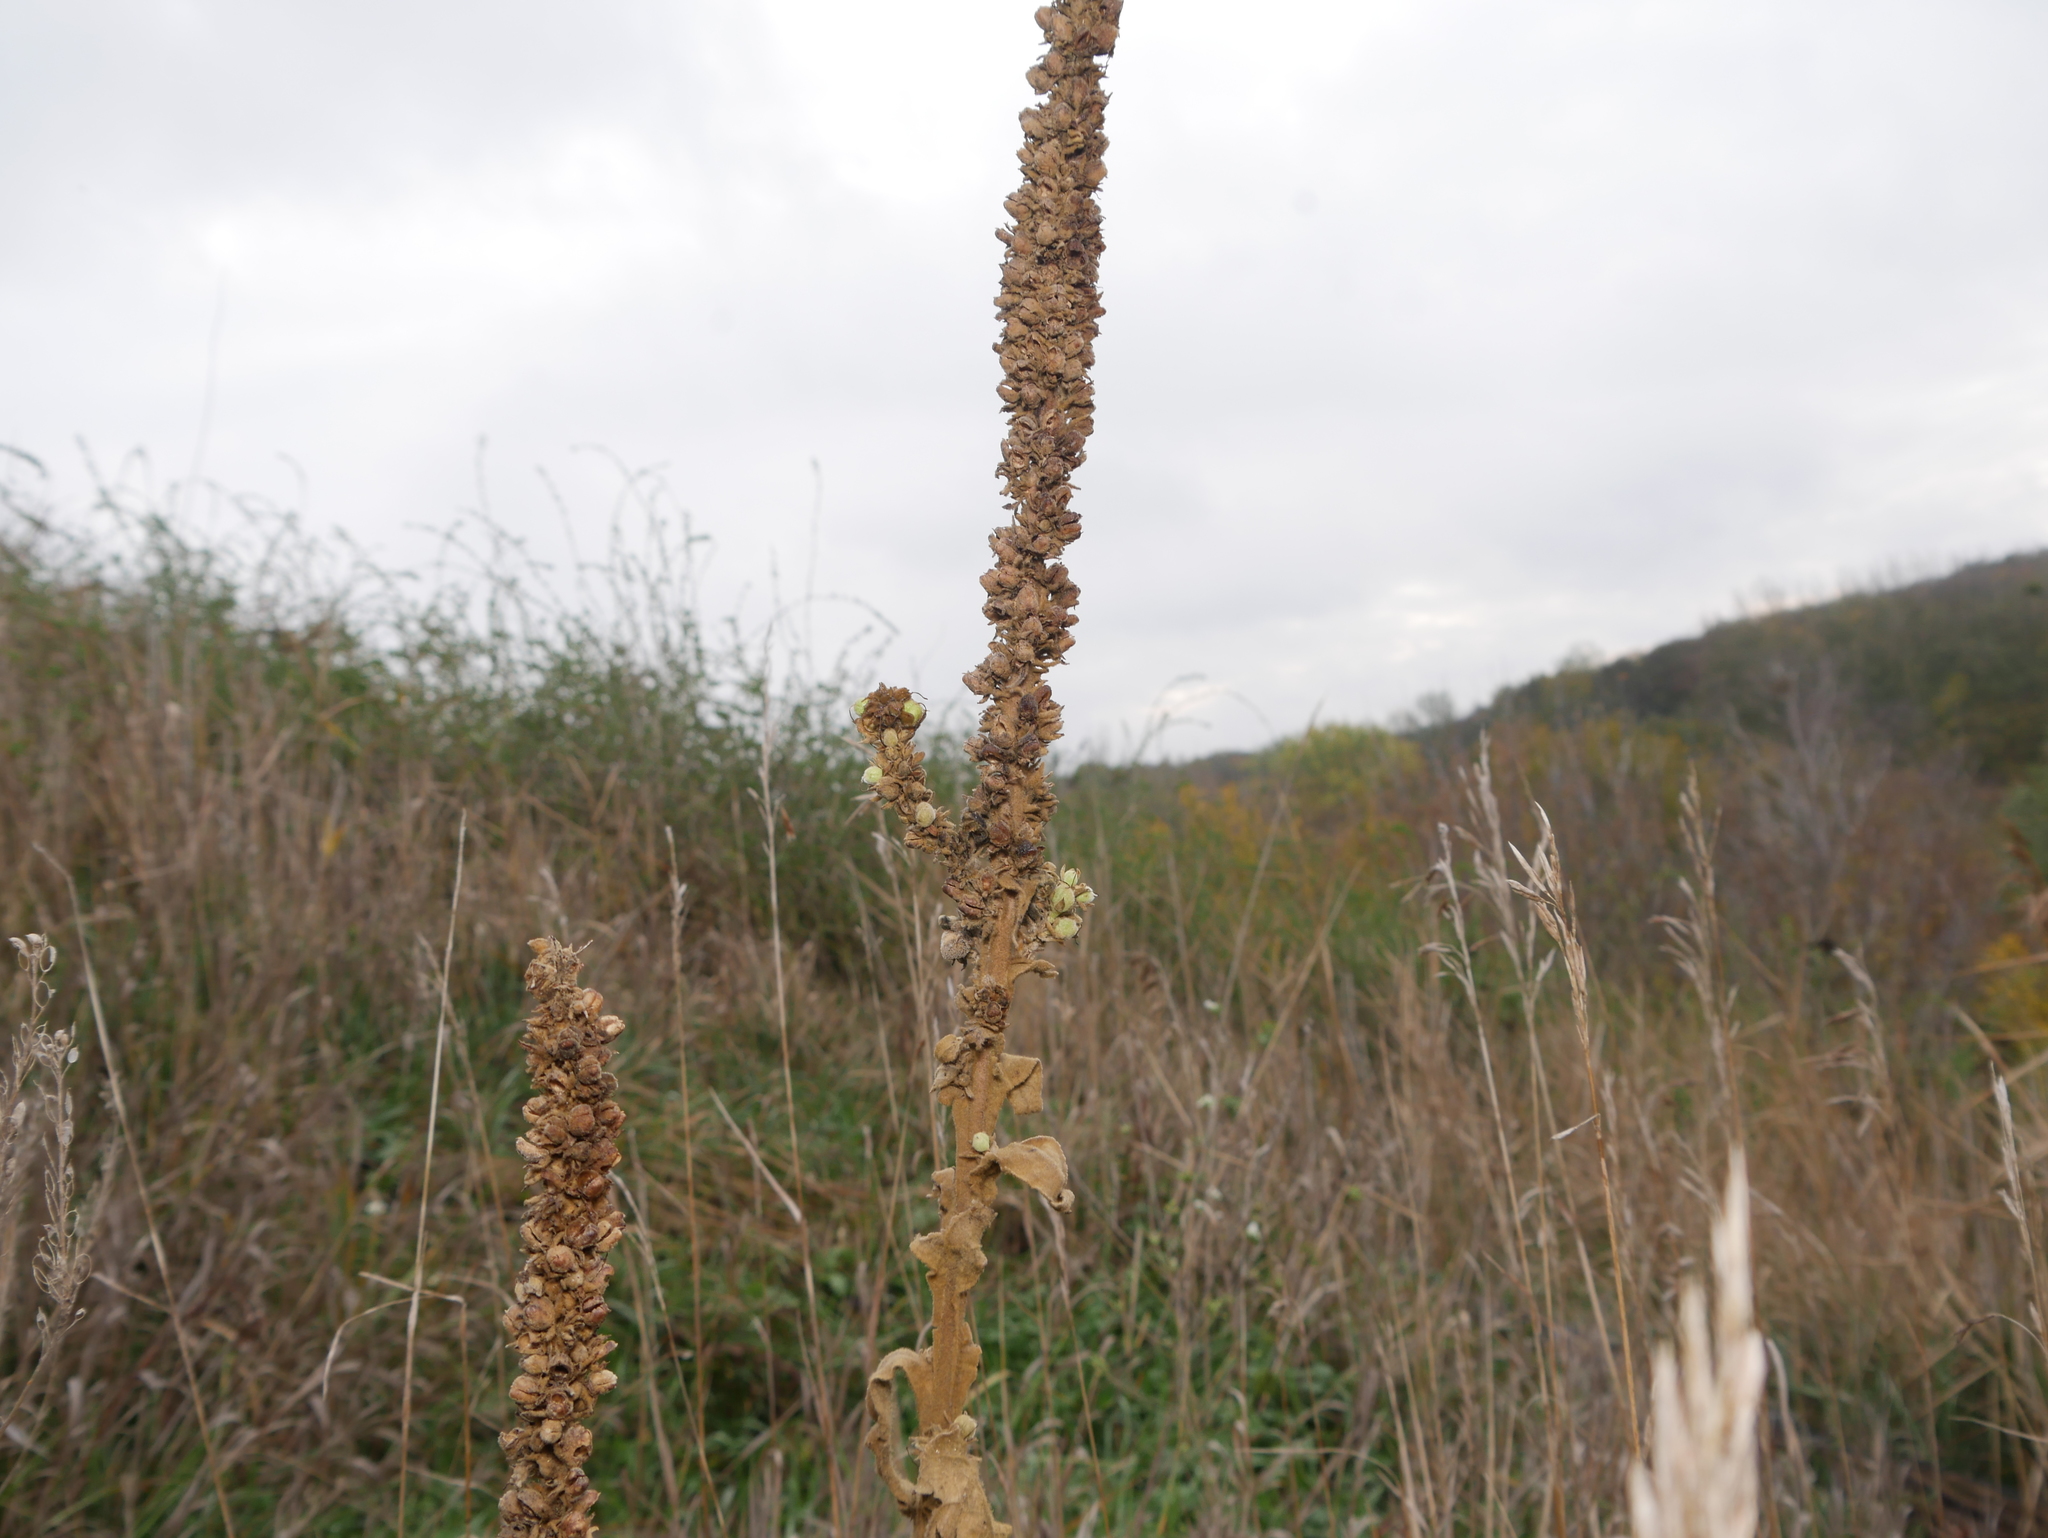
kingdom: Plantae
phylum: Tracheophyta
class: Magnoliopsida
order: Lamiales
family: Scrophulariaceae
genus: Verbascum
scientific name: Verbascum thapsus
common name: Common mullein
